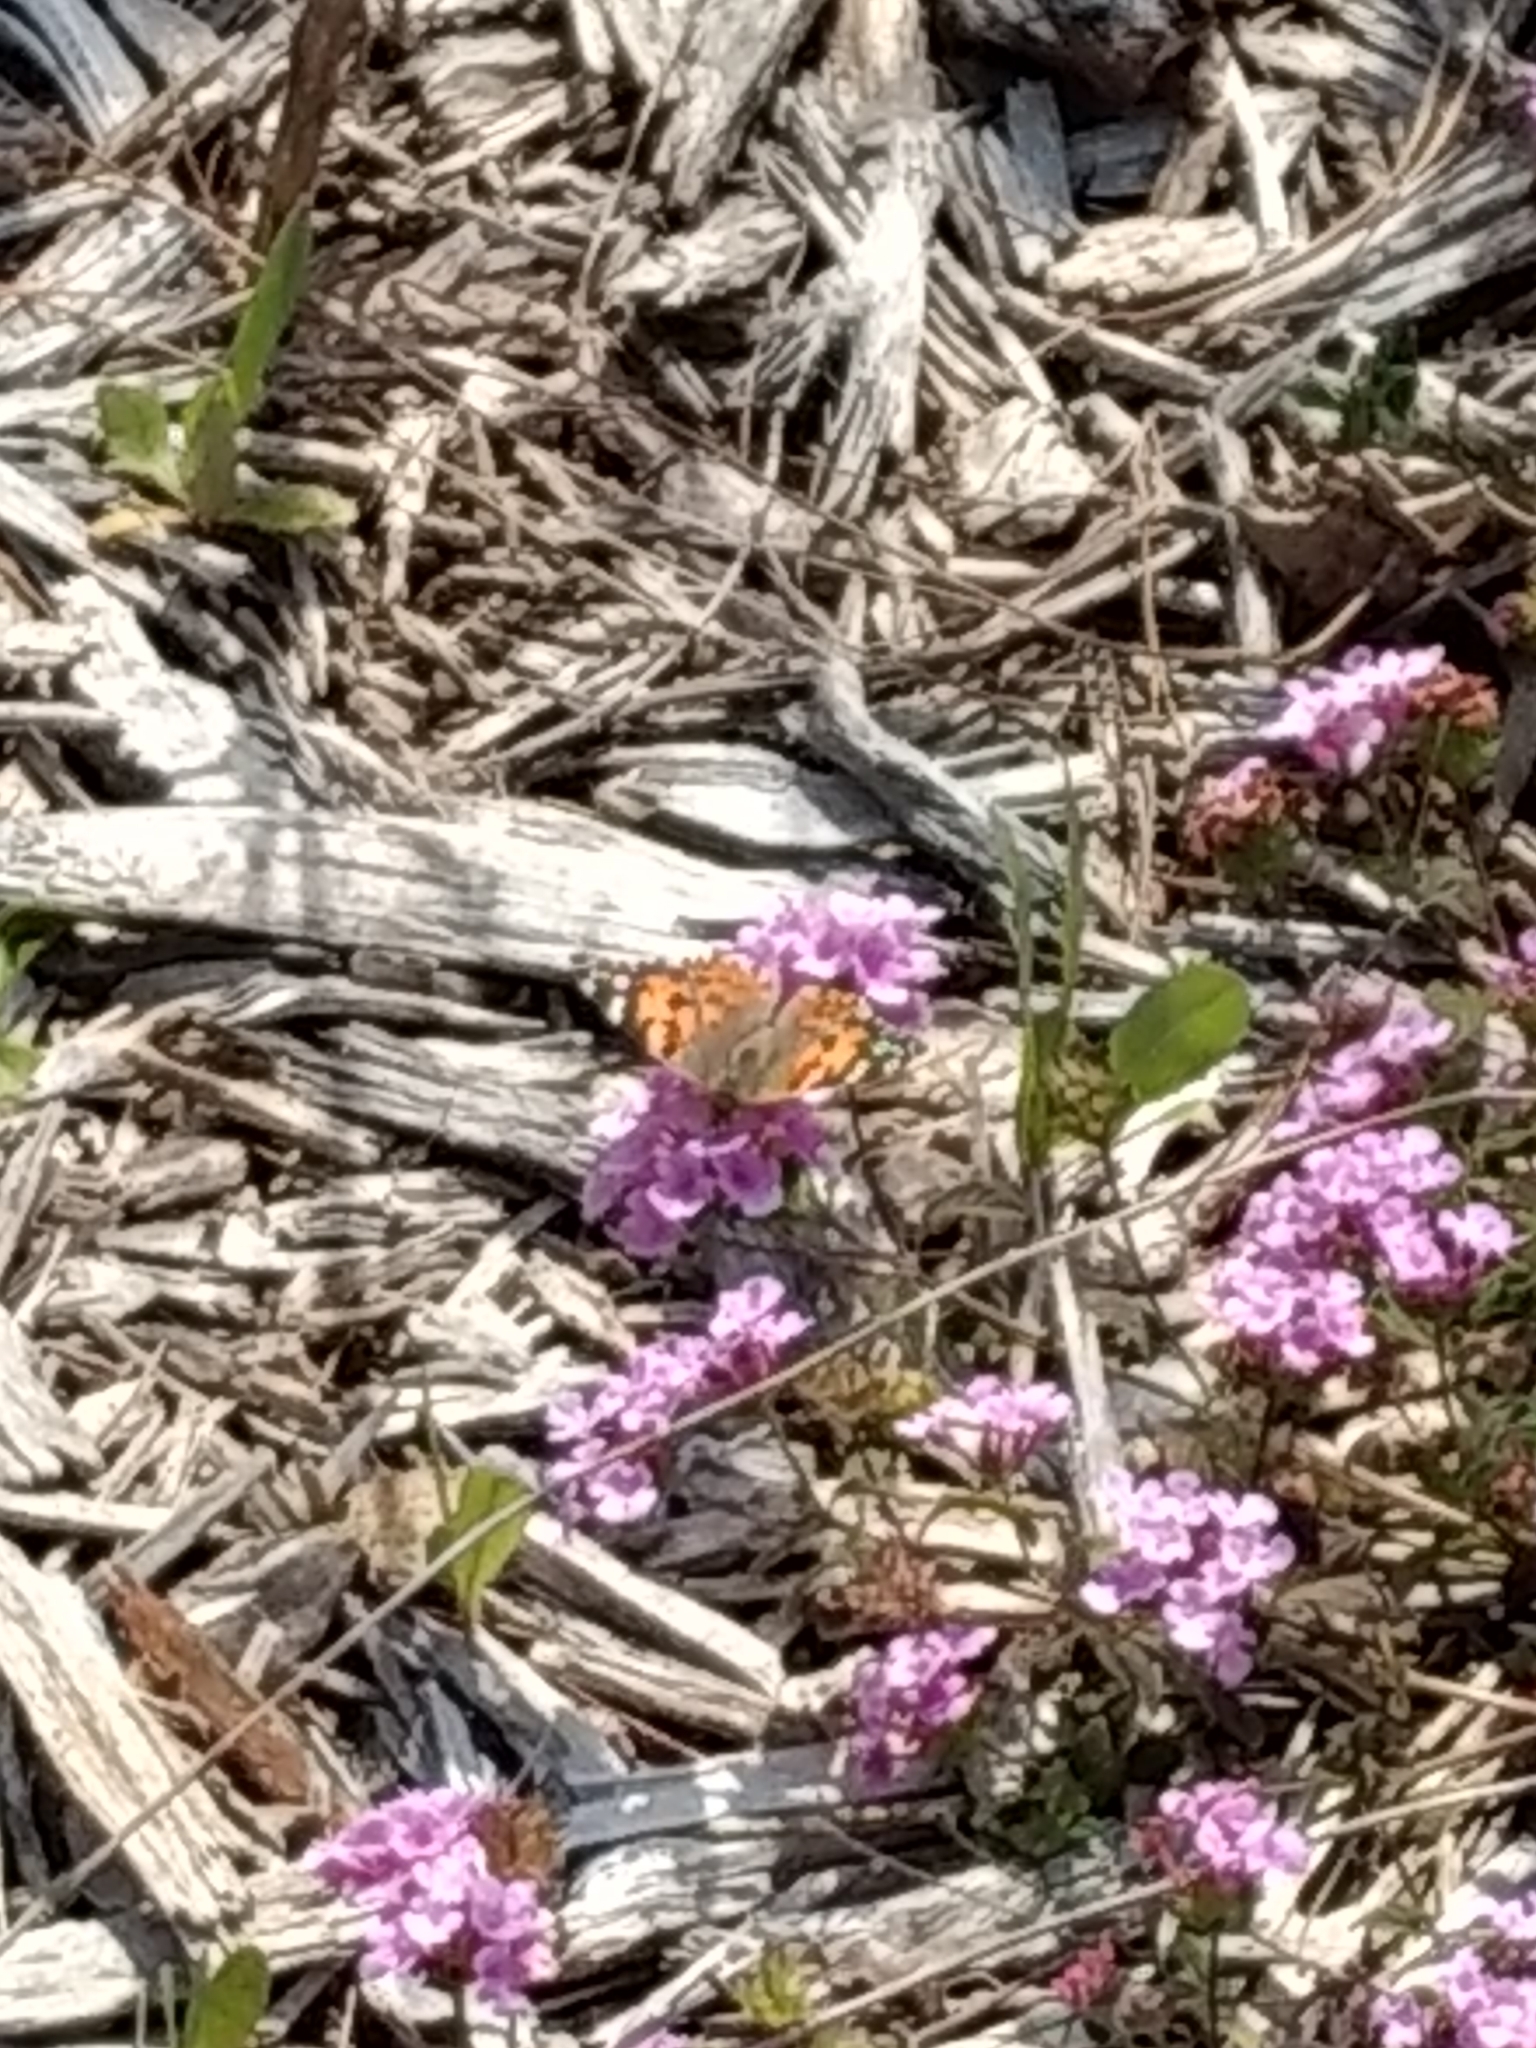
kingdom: Animalia
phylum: Arthropoda
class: Insecta
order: Lepidoptera
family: Nymphalidae
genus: Vanessa
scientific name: Vanessa cardui
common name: Painted lady
